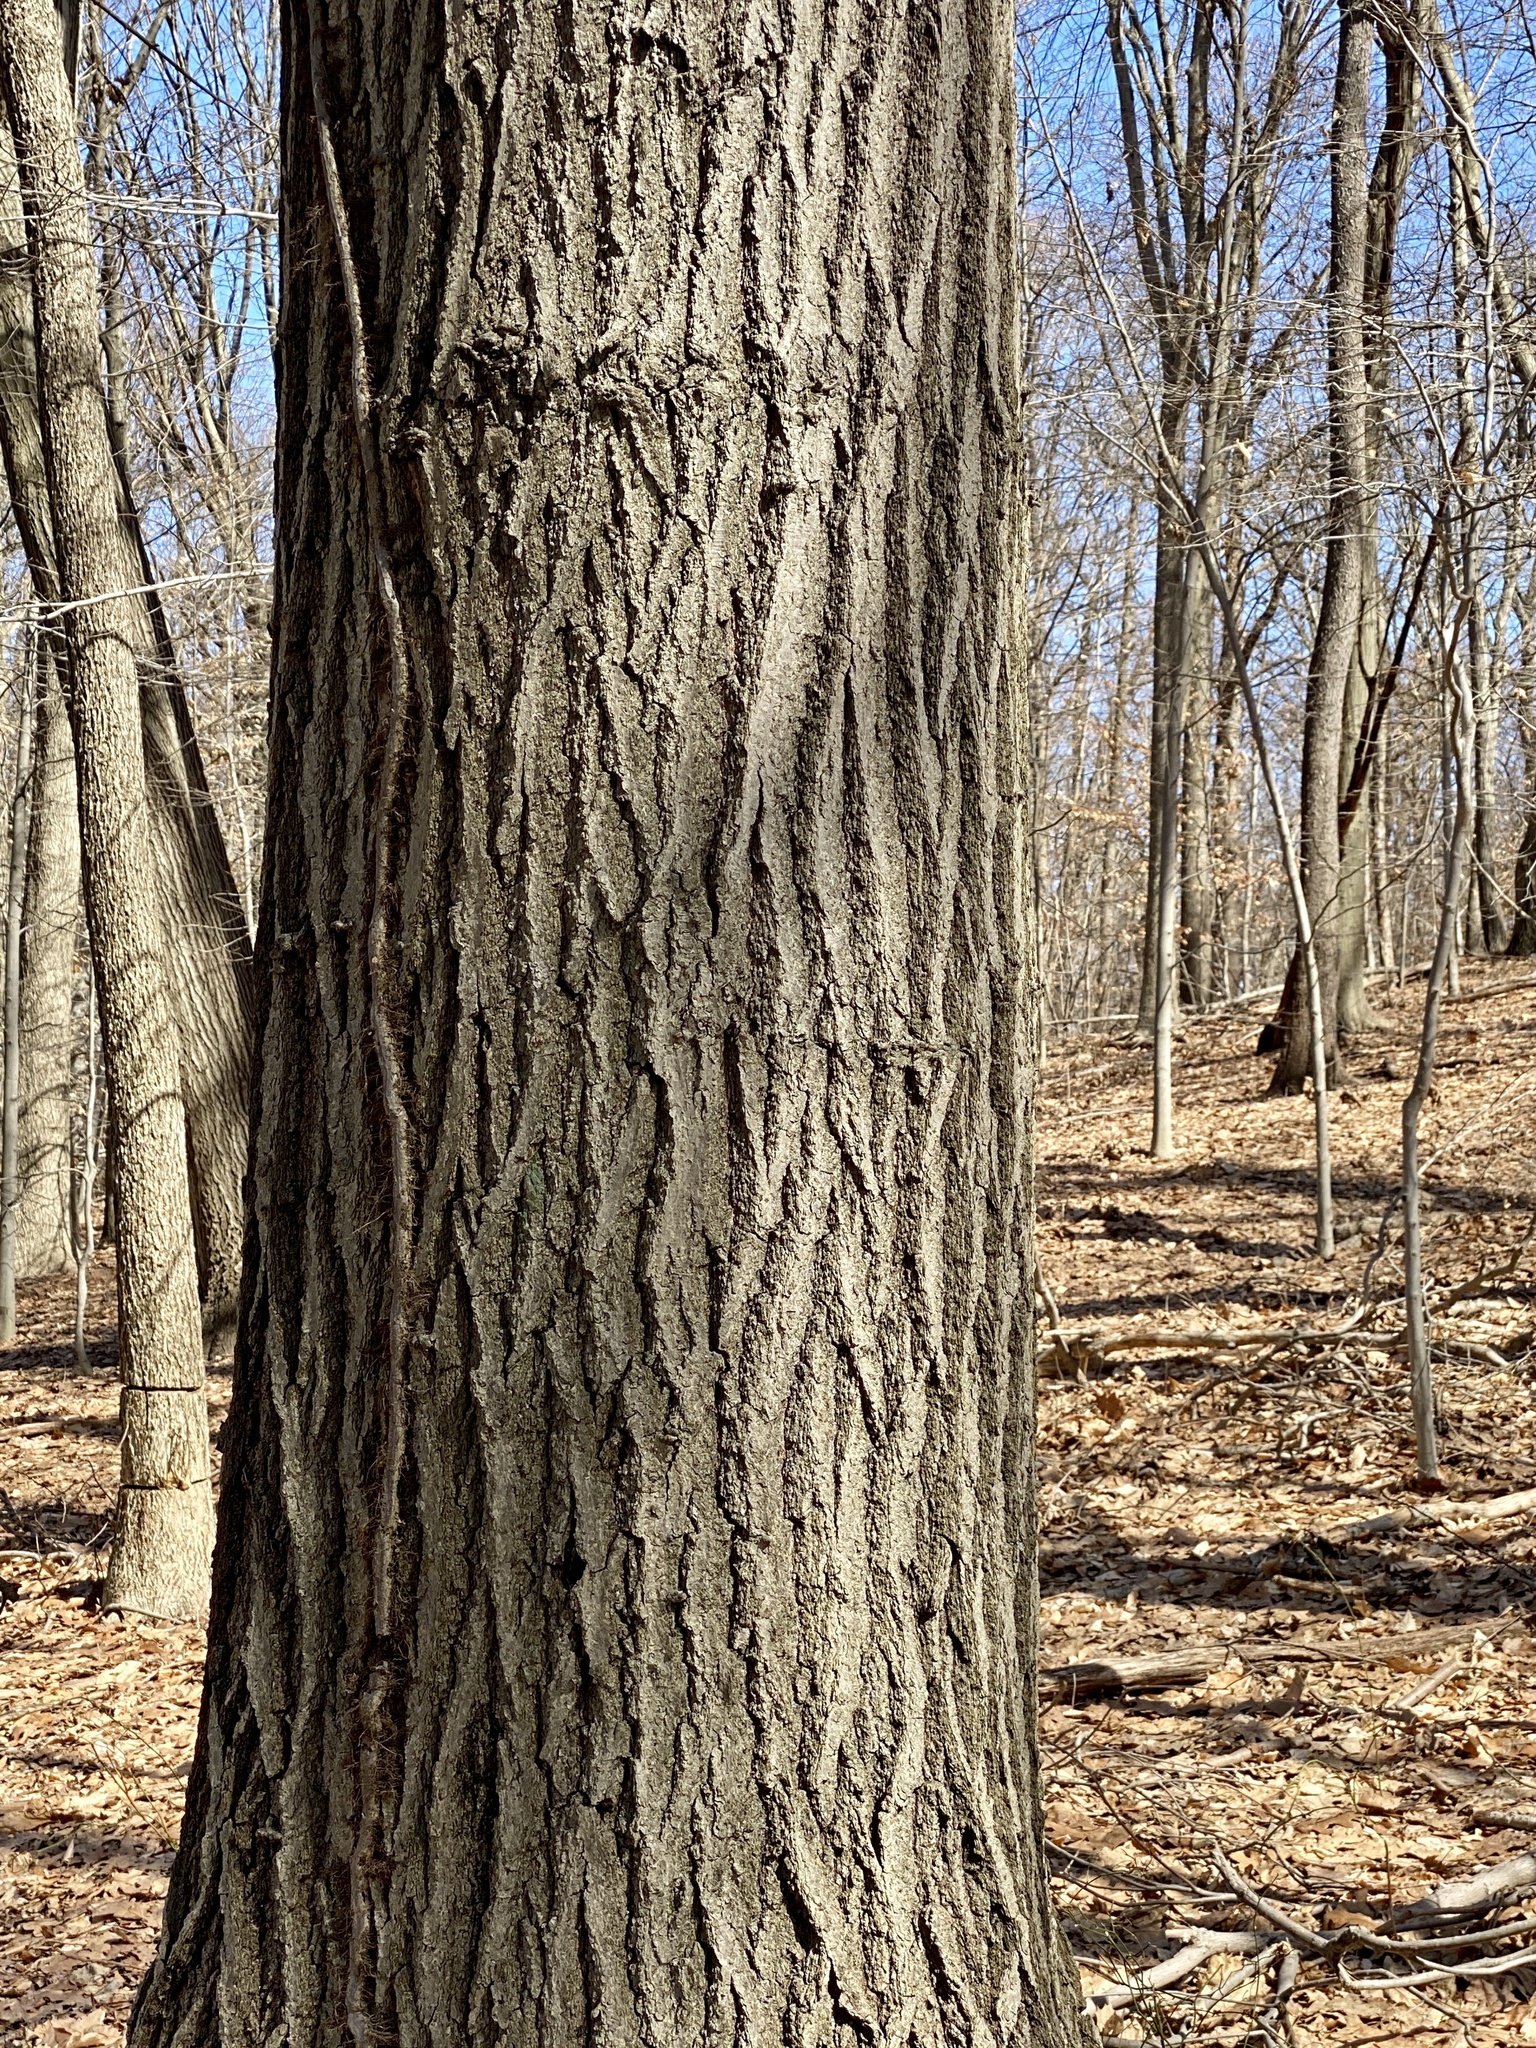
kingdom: Plantae
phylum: Tracheophyta
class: Magnoliopsida
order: Fagales
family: Fagaceae
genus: Quercus
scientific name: Quercus rubra
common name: Red oak
